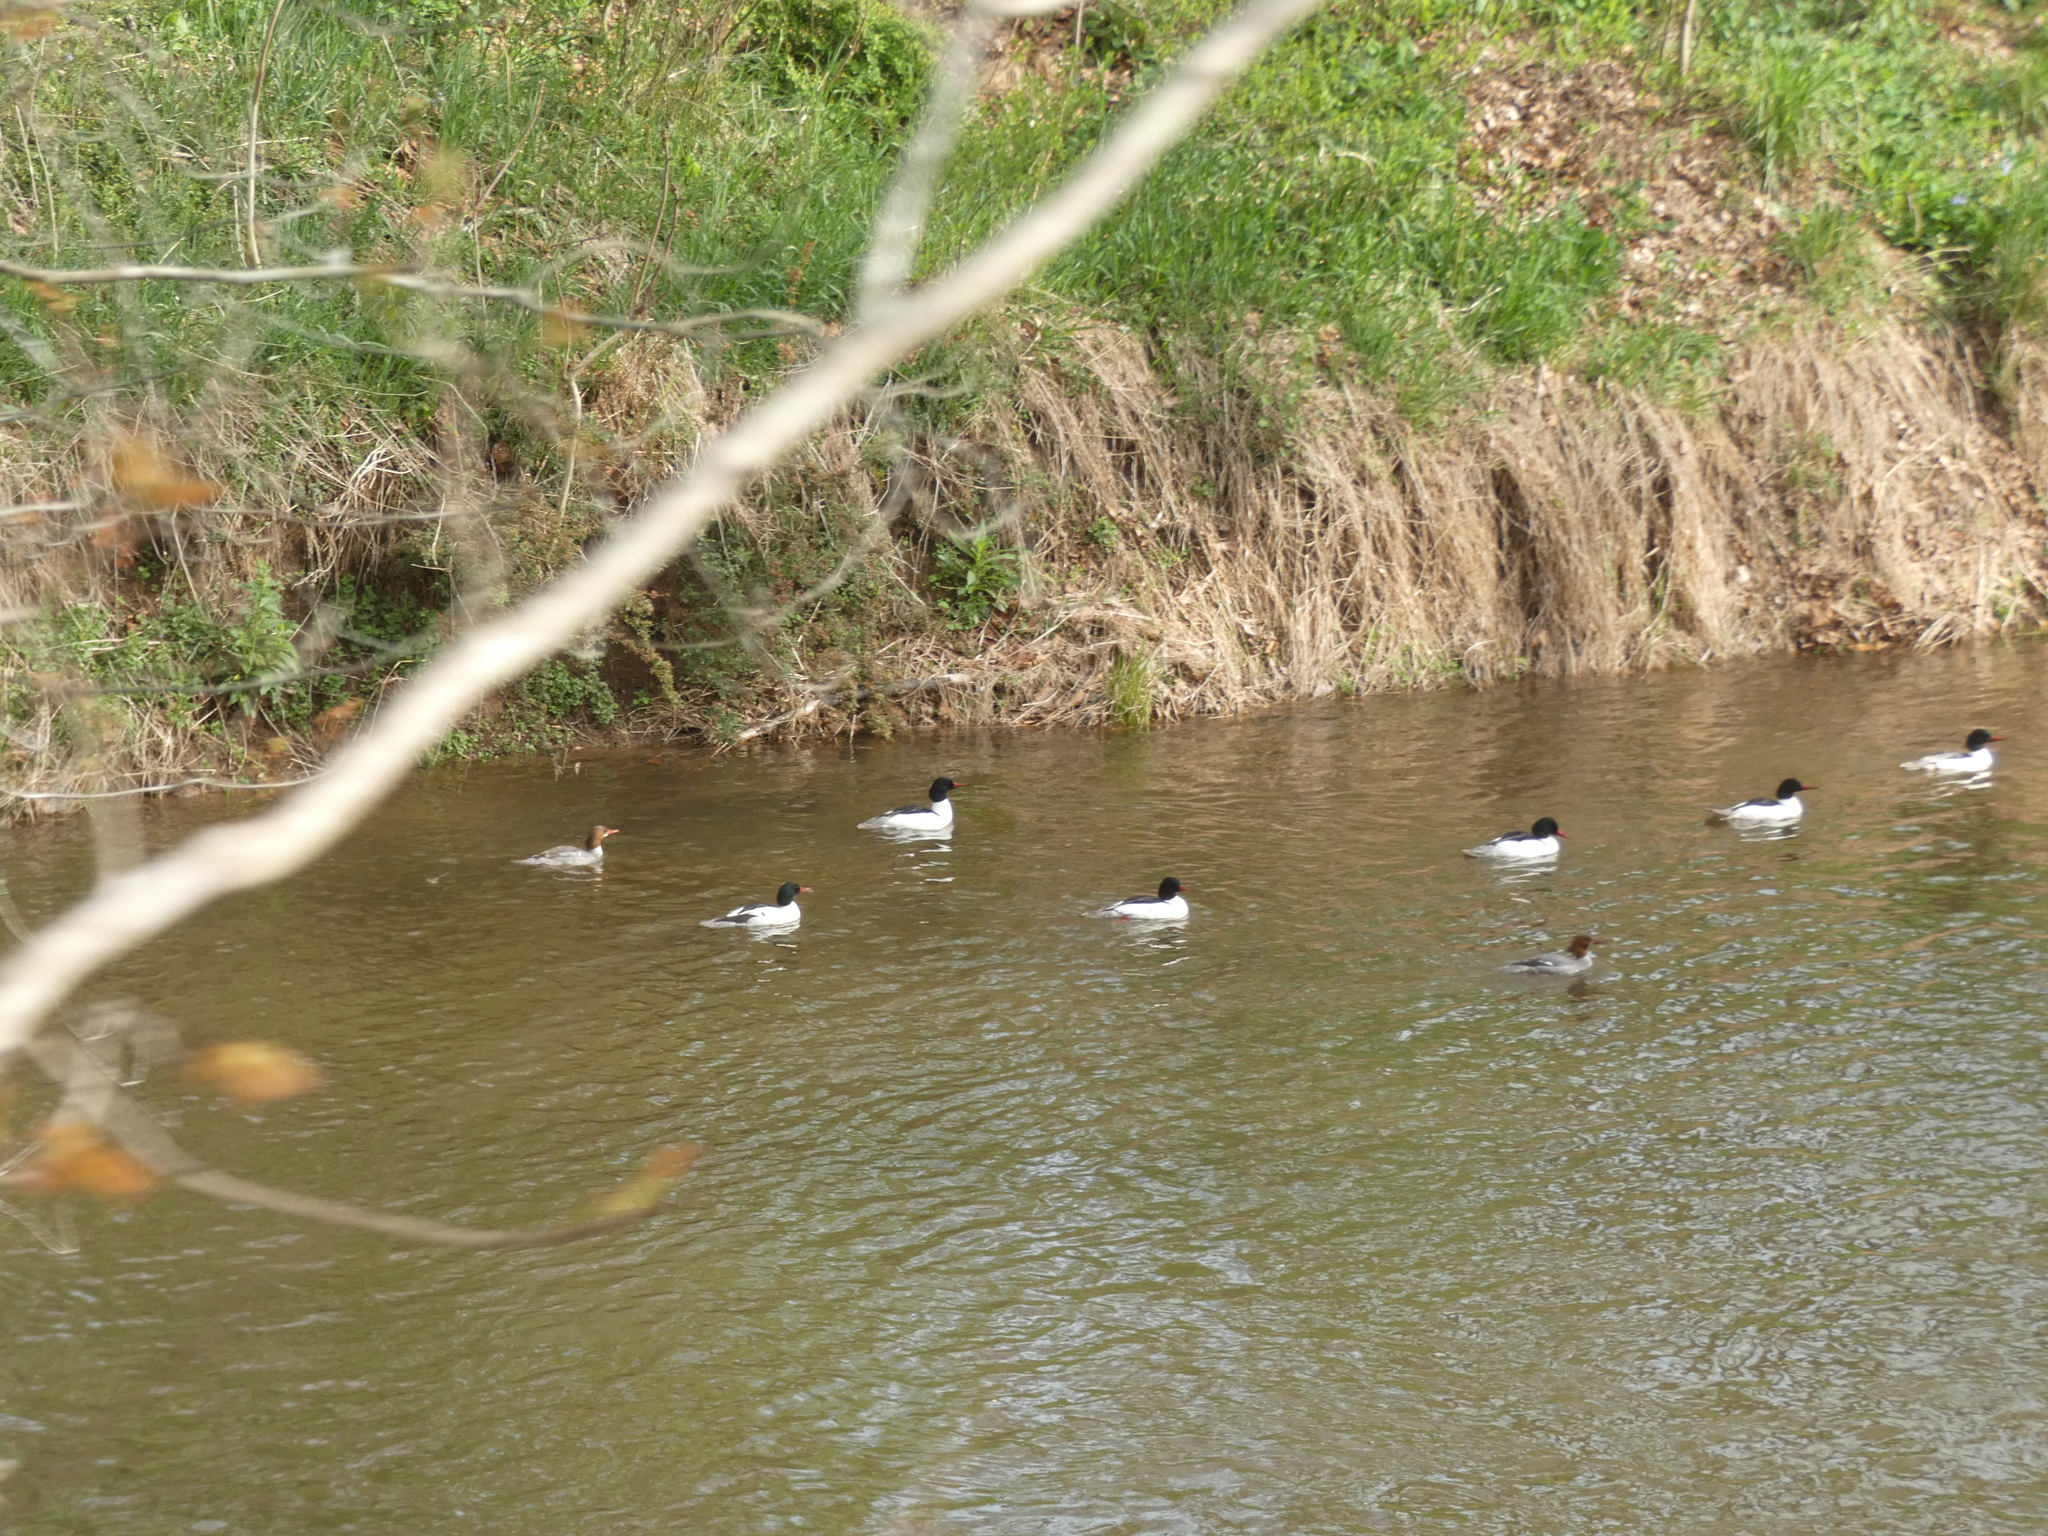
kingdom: Animalia
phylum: Chordata
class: Aves
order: Anseriformes
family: Anatidae
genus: Mergus
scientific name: Mergus merganser
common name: Common merganser
